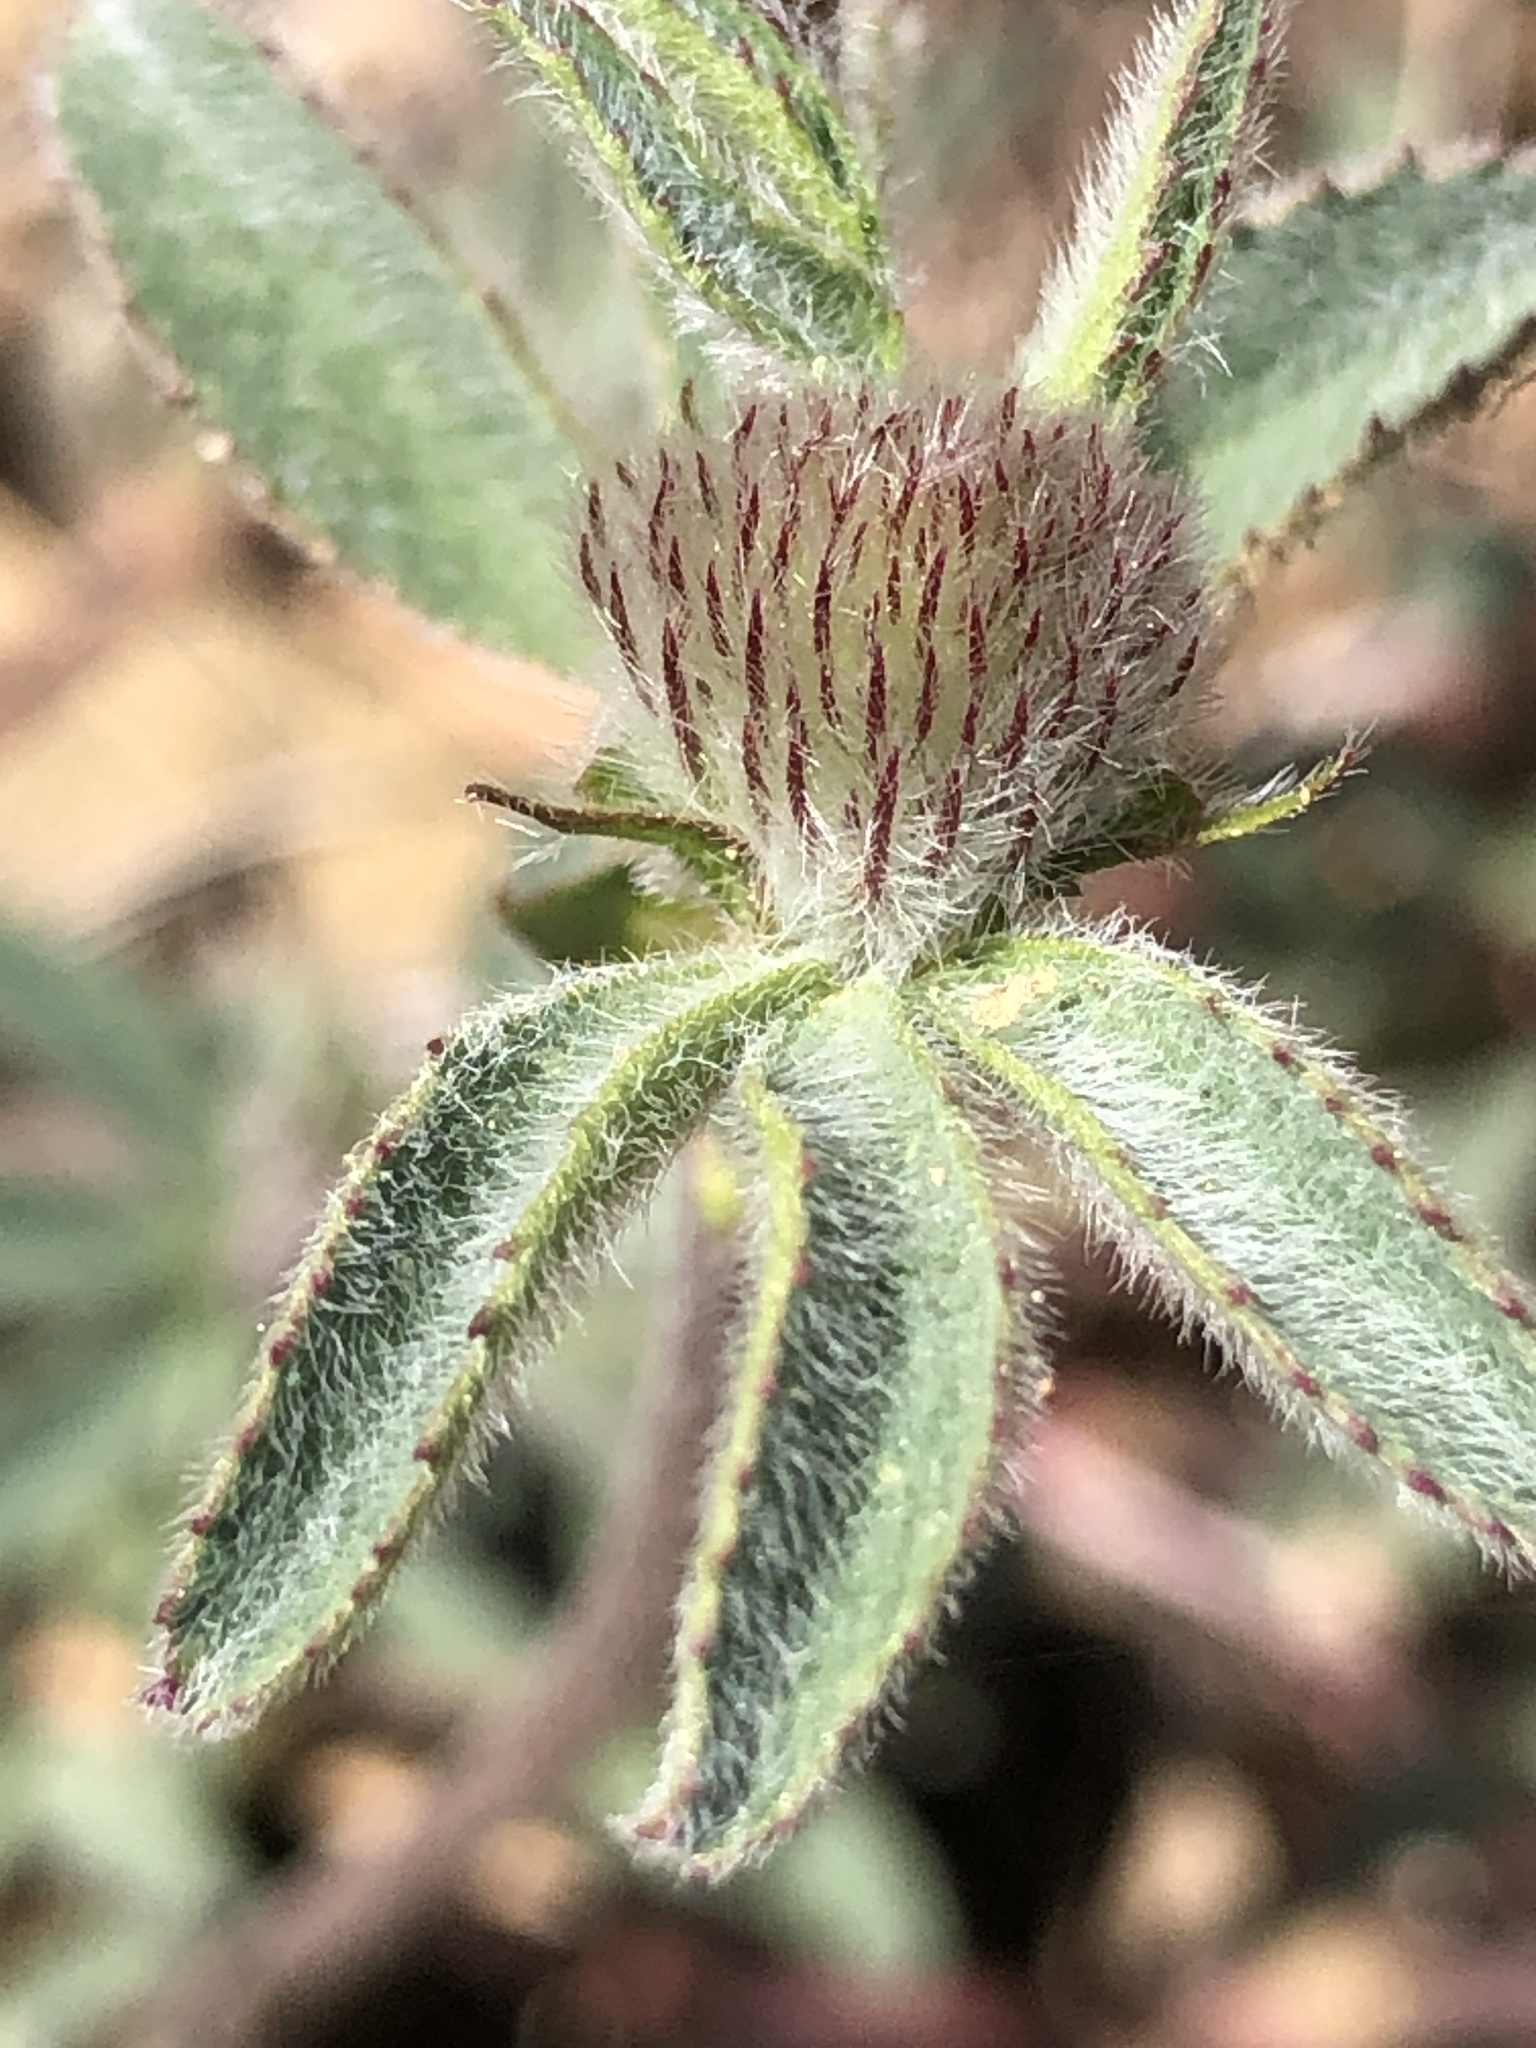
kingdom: Plantae
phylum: Tracheophyta
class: Magnoliopsida
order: Fabales
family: Fabaceae
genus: Trifolium
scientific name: Trifolium albopurpureum
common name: Rancheria clover
